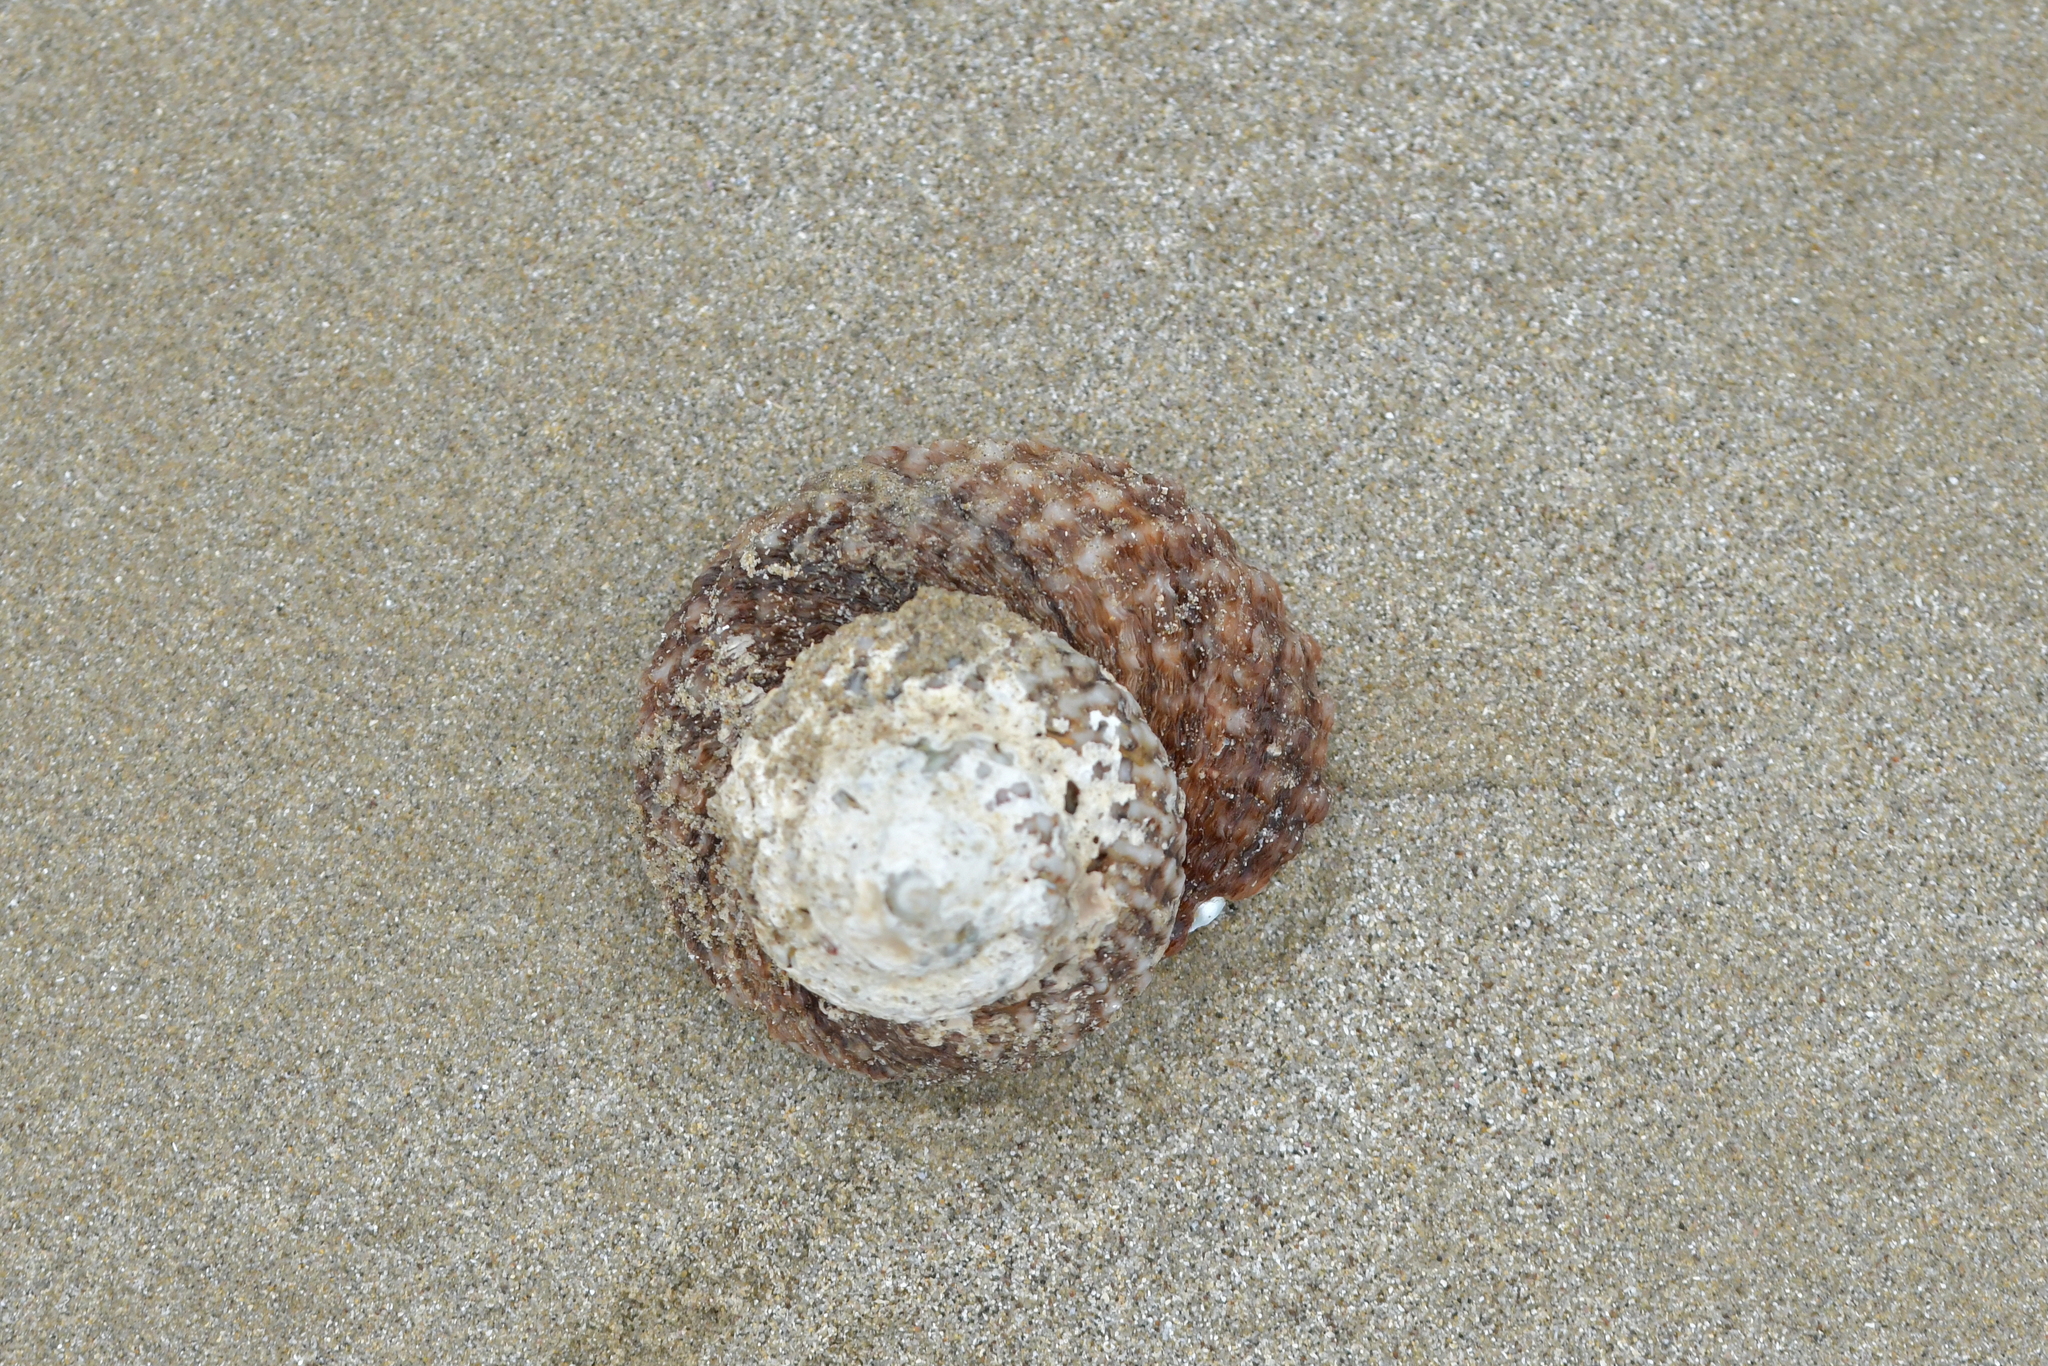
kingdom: Animalia
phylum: Mollusca
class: Gastropoda
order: Trochida
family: Turbinidae
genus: Cookia
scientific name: Cookia sulcata
